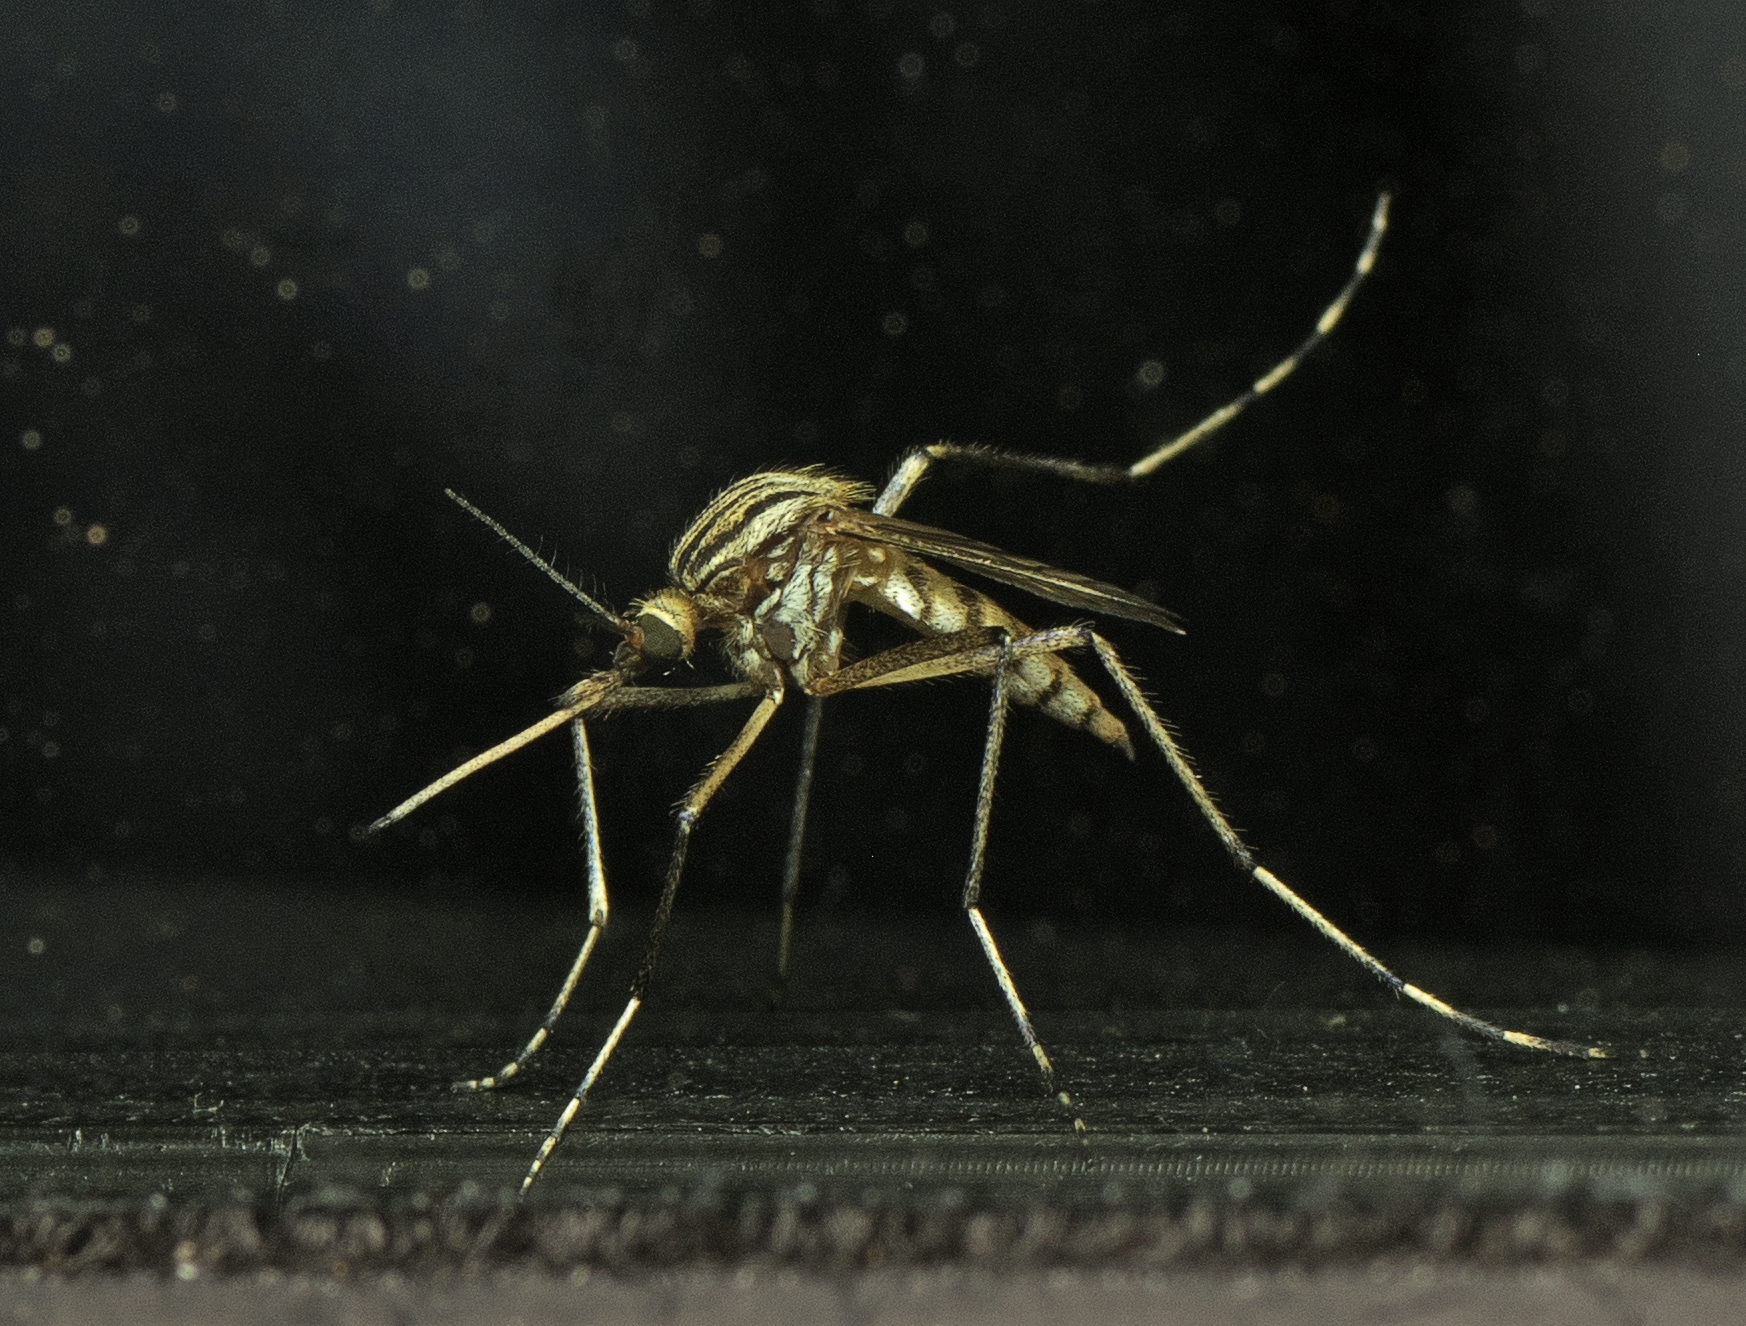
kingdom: Animalia
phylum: Arthropoda
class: Insecta
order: Diptera
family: Culicidae
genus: Aedes
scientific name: Aedes vittiger
